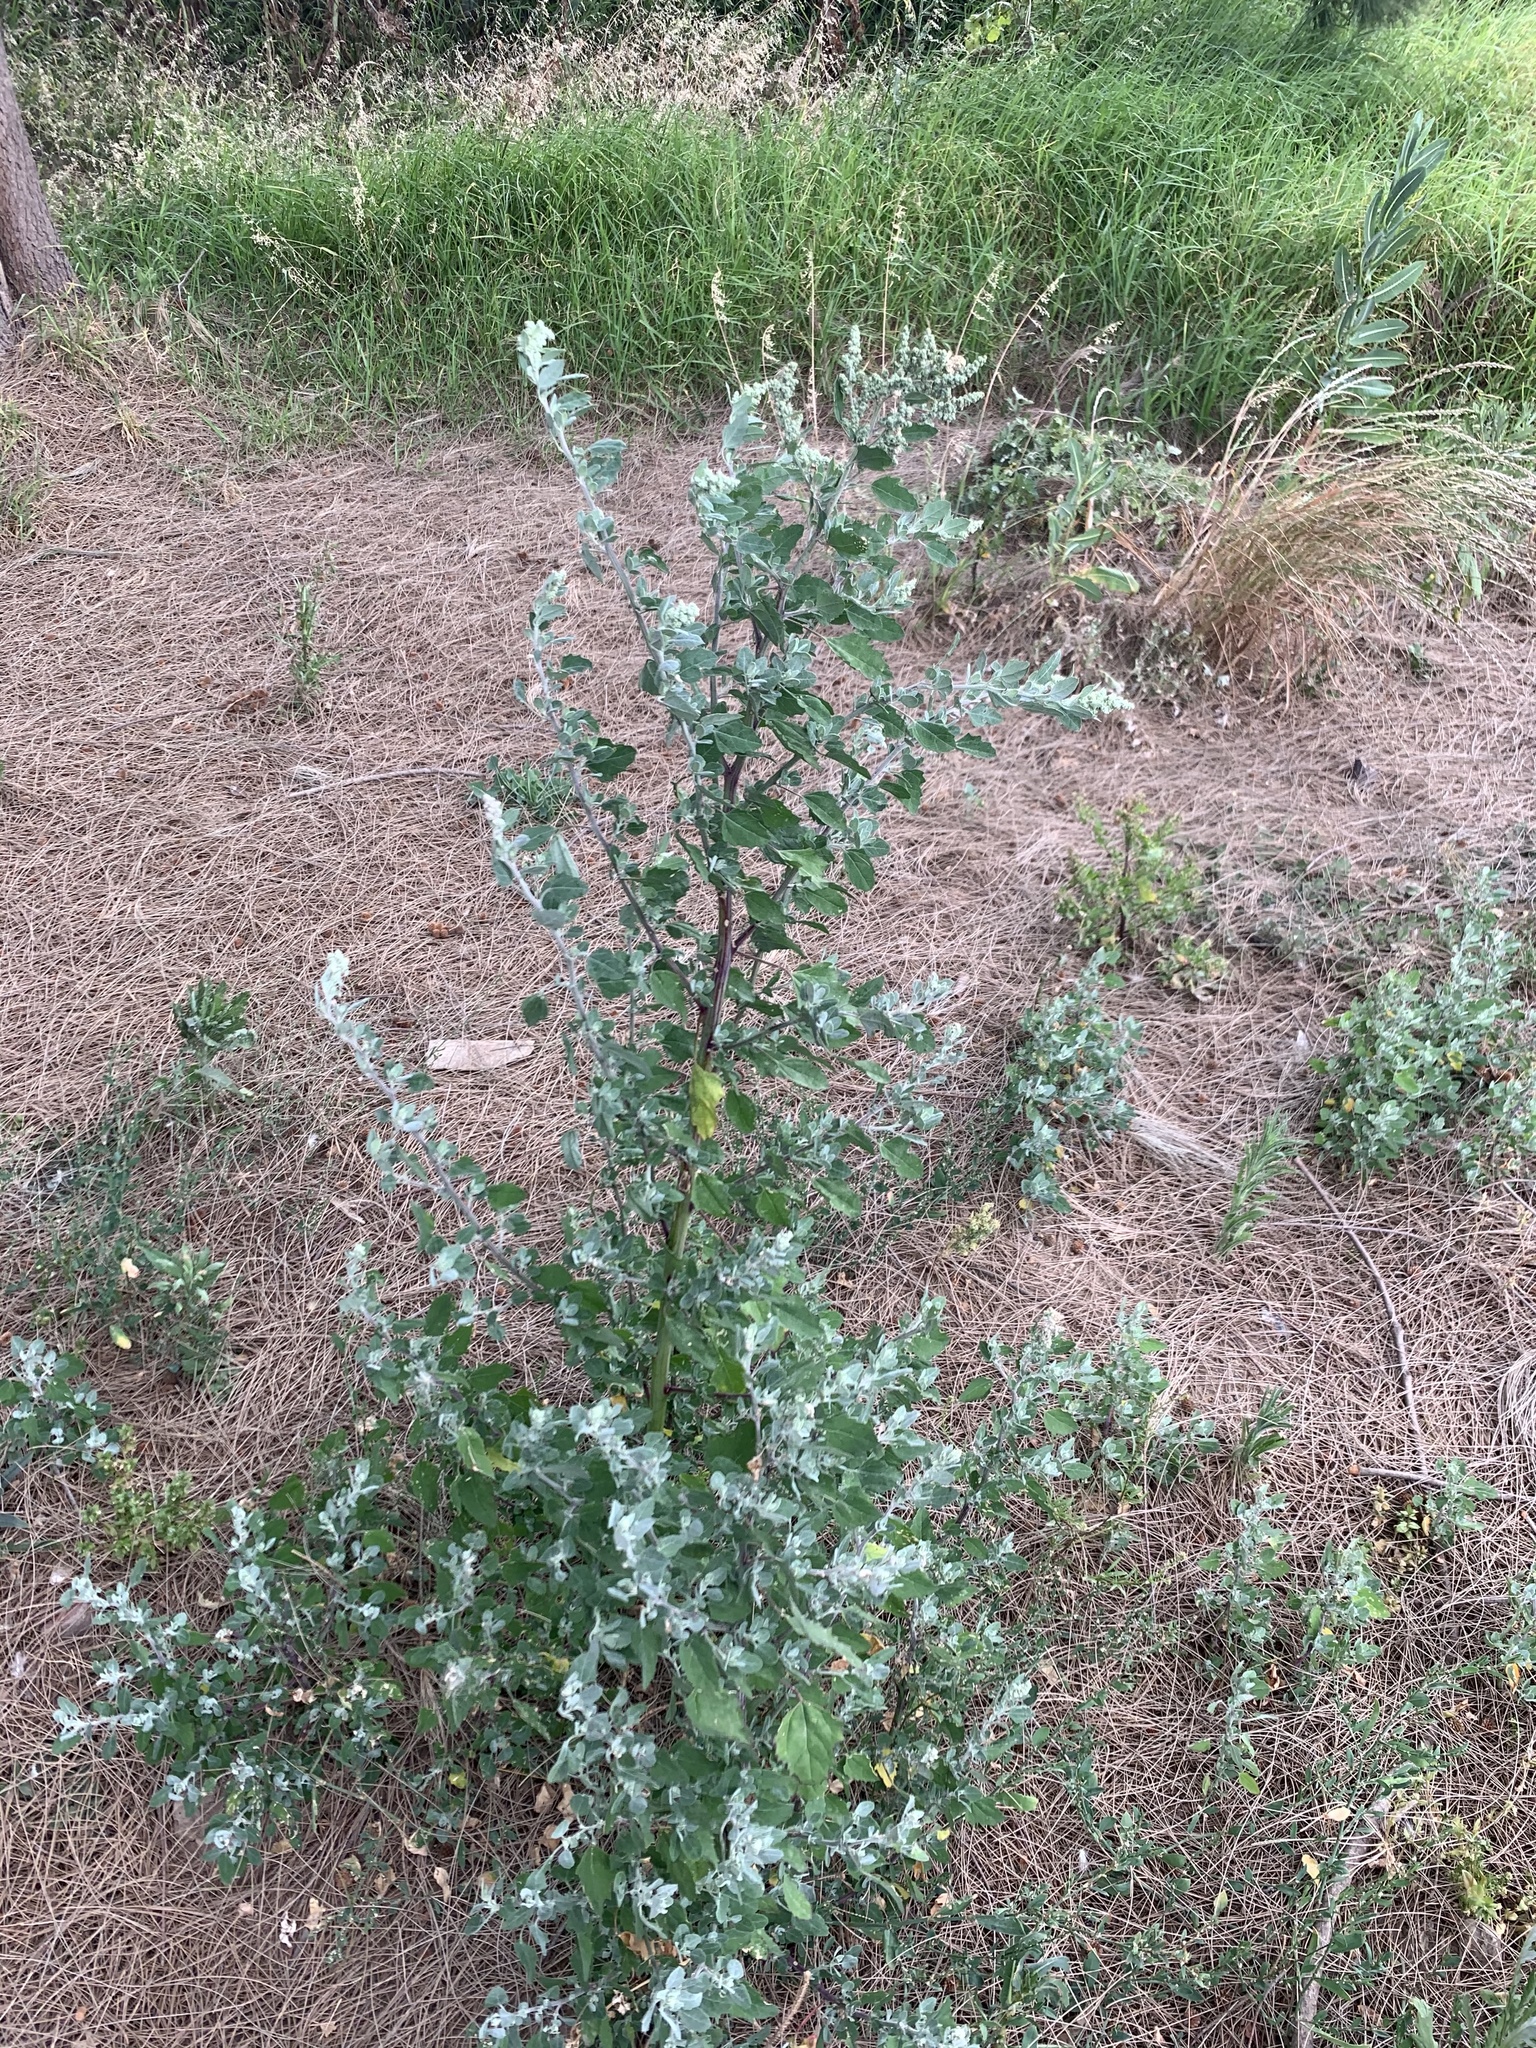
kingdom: Plantae
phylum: Tracheophyta
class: Magnoliopsida
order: Caryophyllales
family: Amaranthaceae
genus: Chenopodium
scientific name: Chenopodium album
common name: Fat-hen
